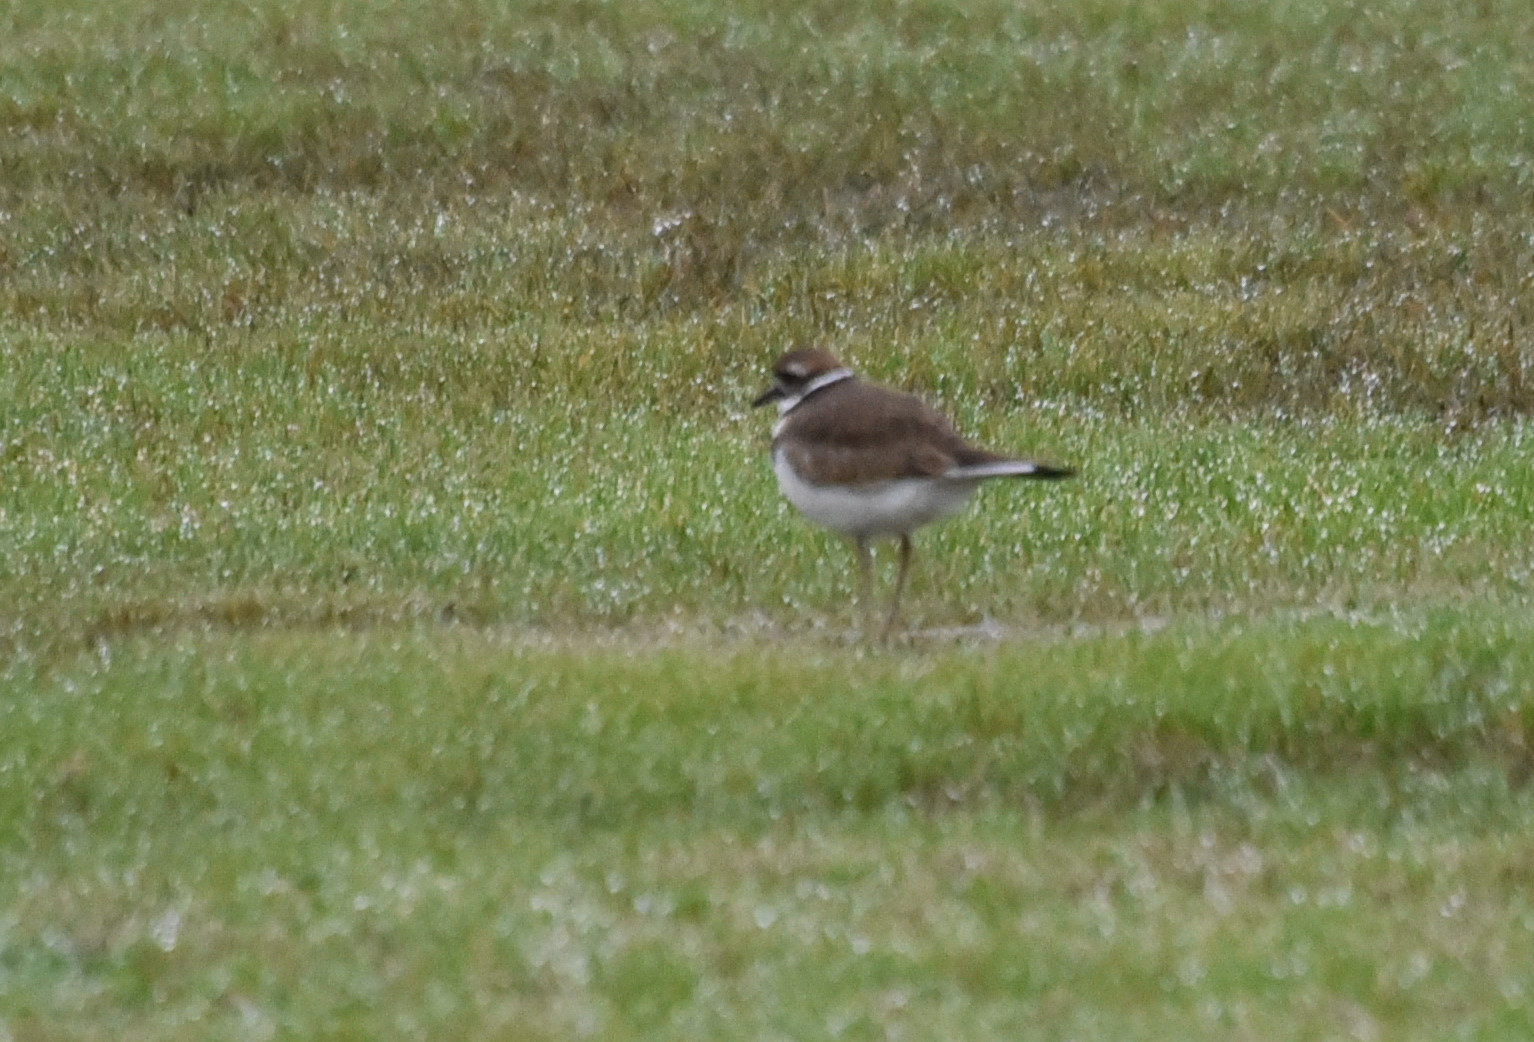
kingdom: Animalia
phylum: Chordata
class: Aves
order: Charadriiformes
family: Charadriidae
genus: Charadrius
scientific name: Charadrius vociferus
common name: Killdeer
